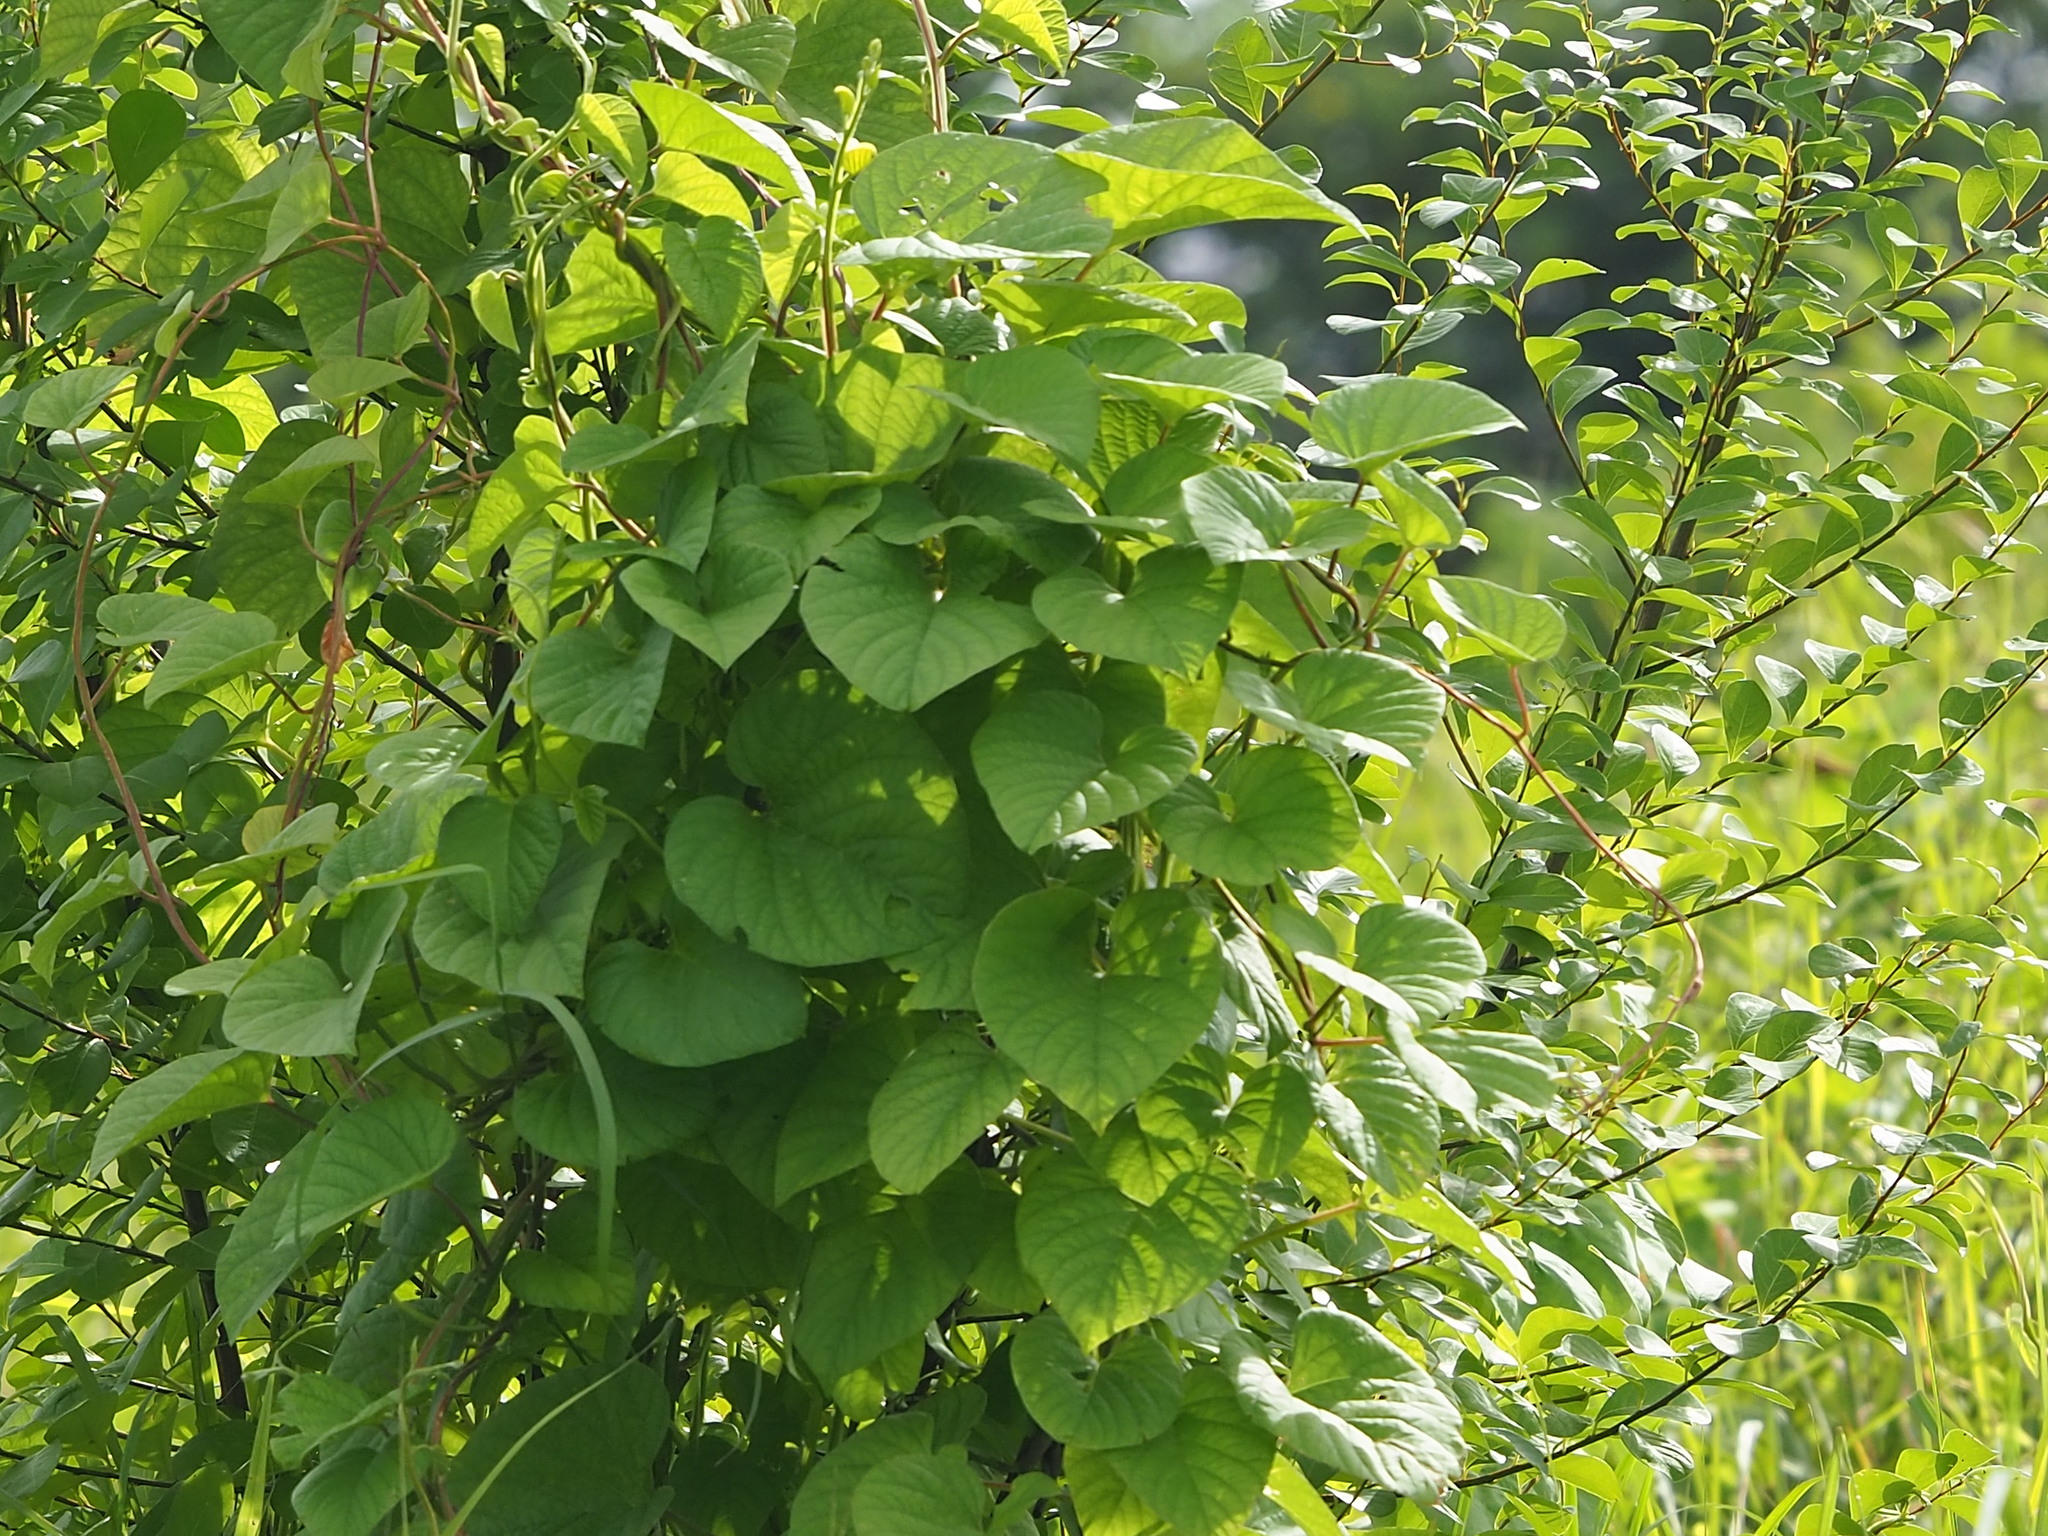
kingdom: Plantae
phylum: Tracheophyta
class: Magnoliopsida
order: Solanales
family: Convolvulaceae
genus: Operculina
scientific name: Operculina turpethum
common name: Transparent wood-rose
